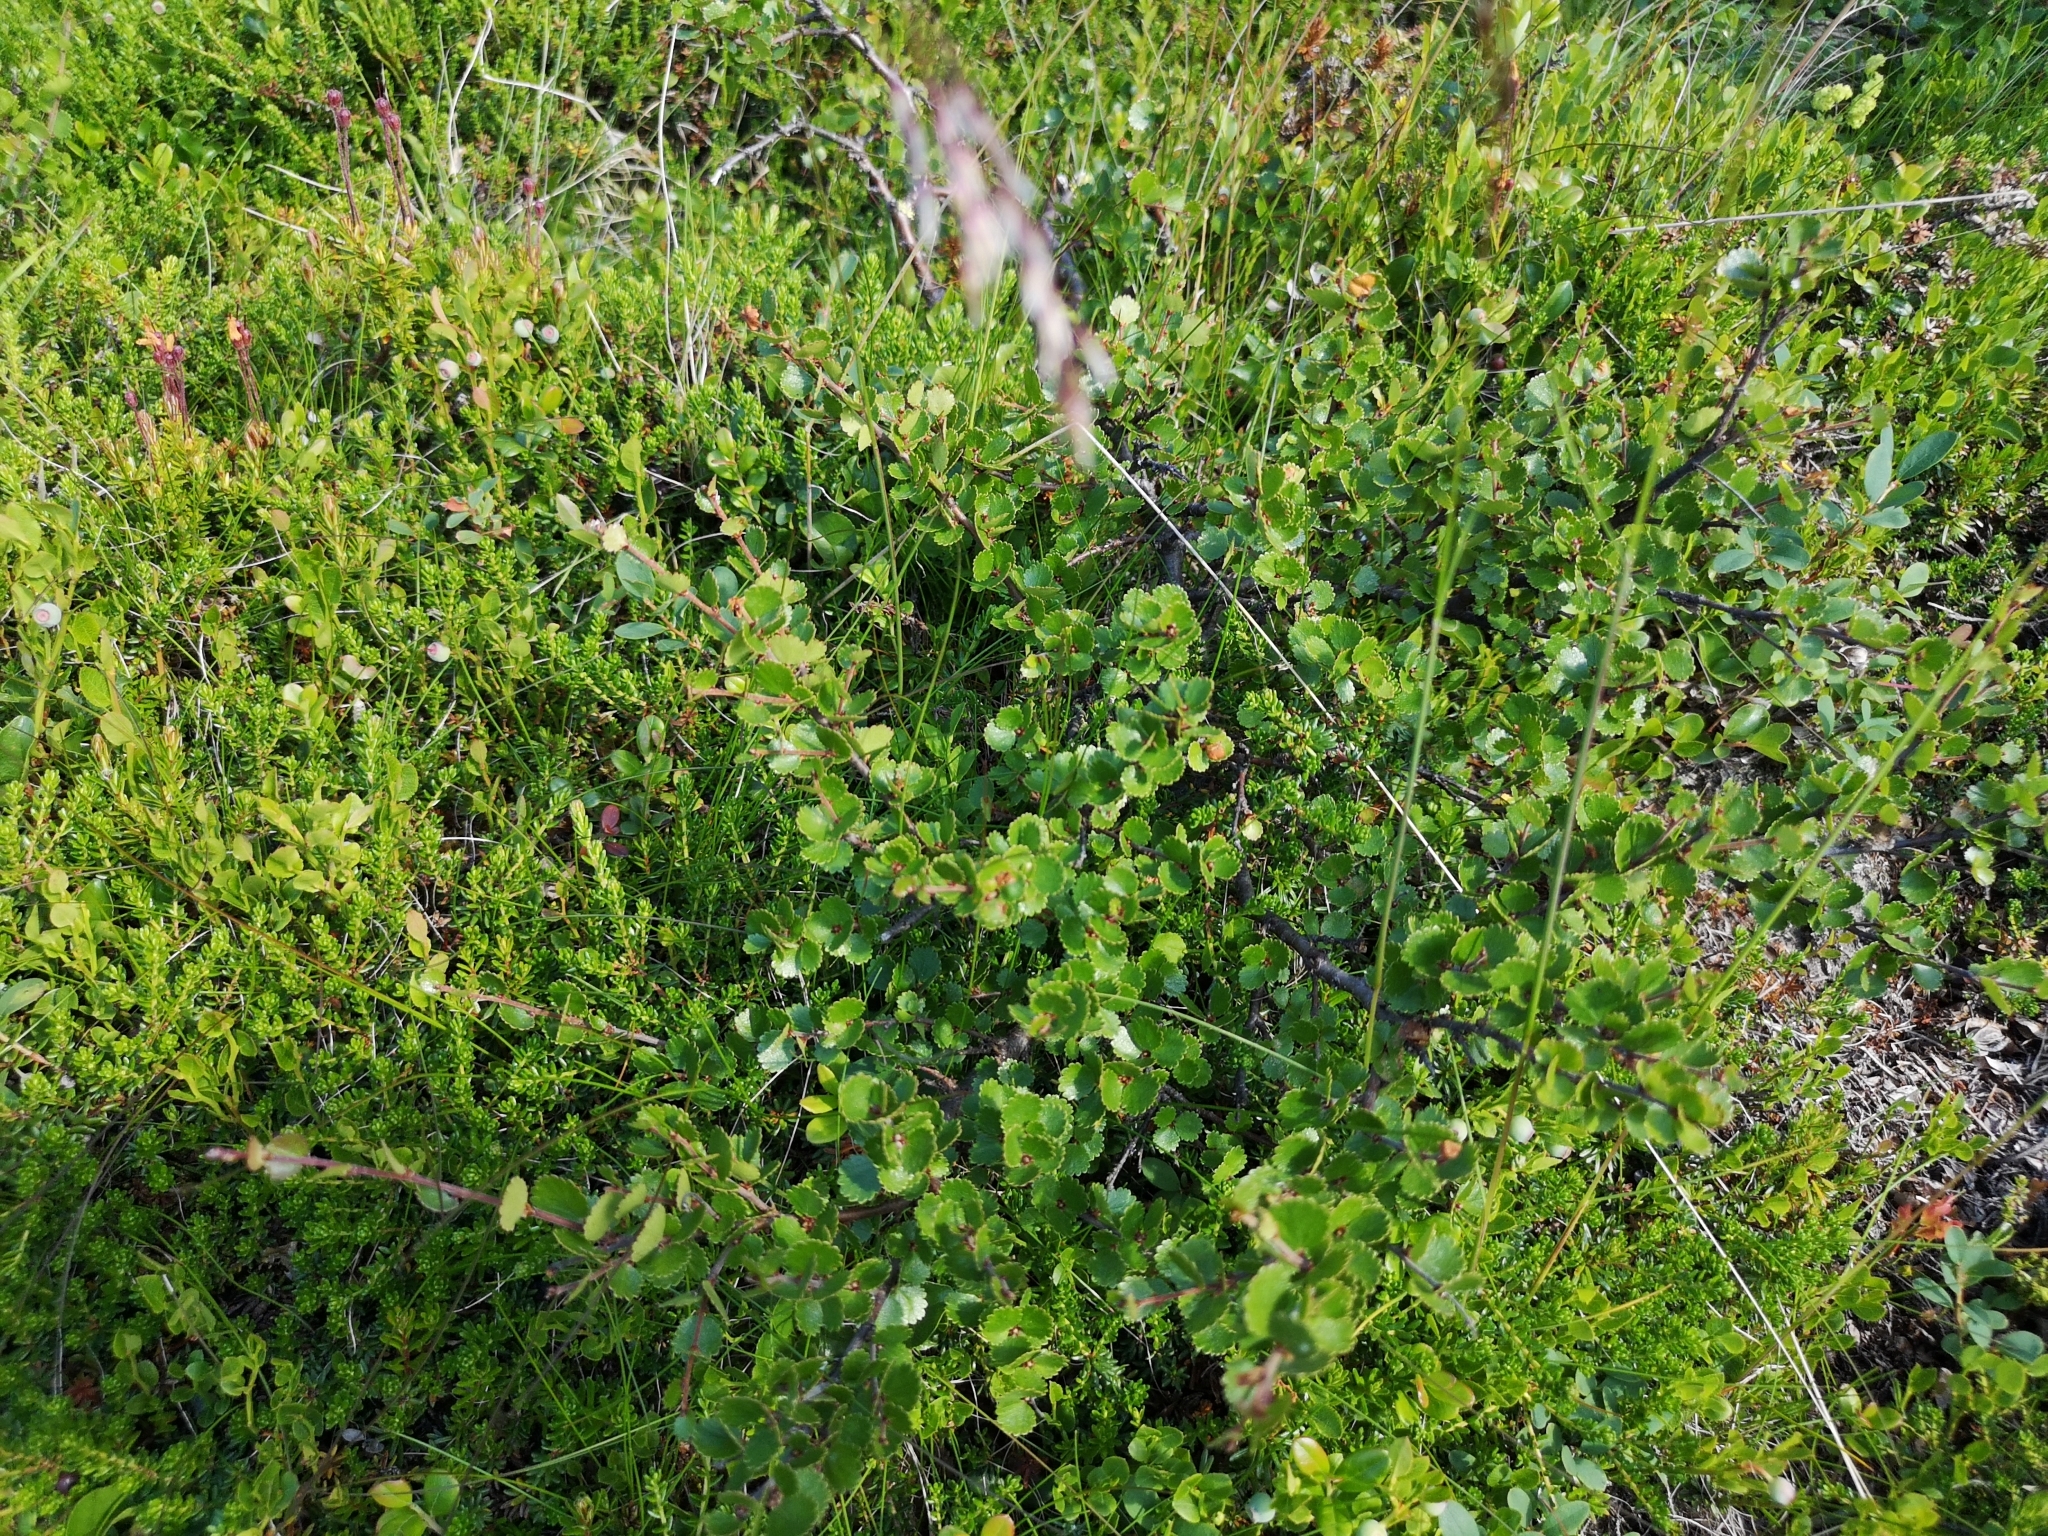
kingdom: Plantae
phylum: Tracheophyta
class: Magnoliopsida
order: Fagales
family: Betulaceae
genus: Betula
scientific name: Betula nana
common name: Arctic dwarf birch
